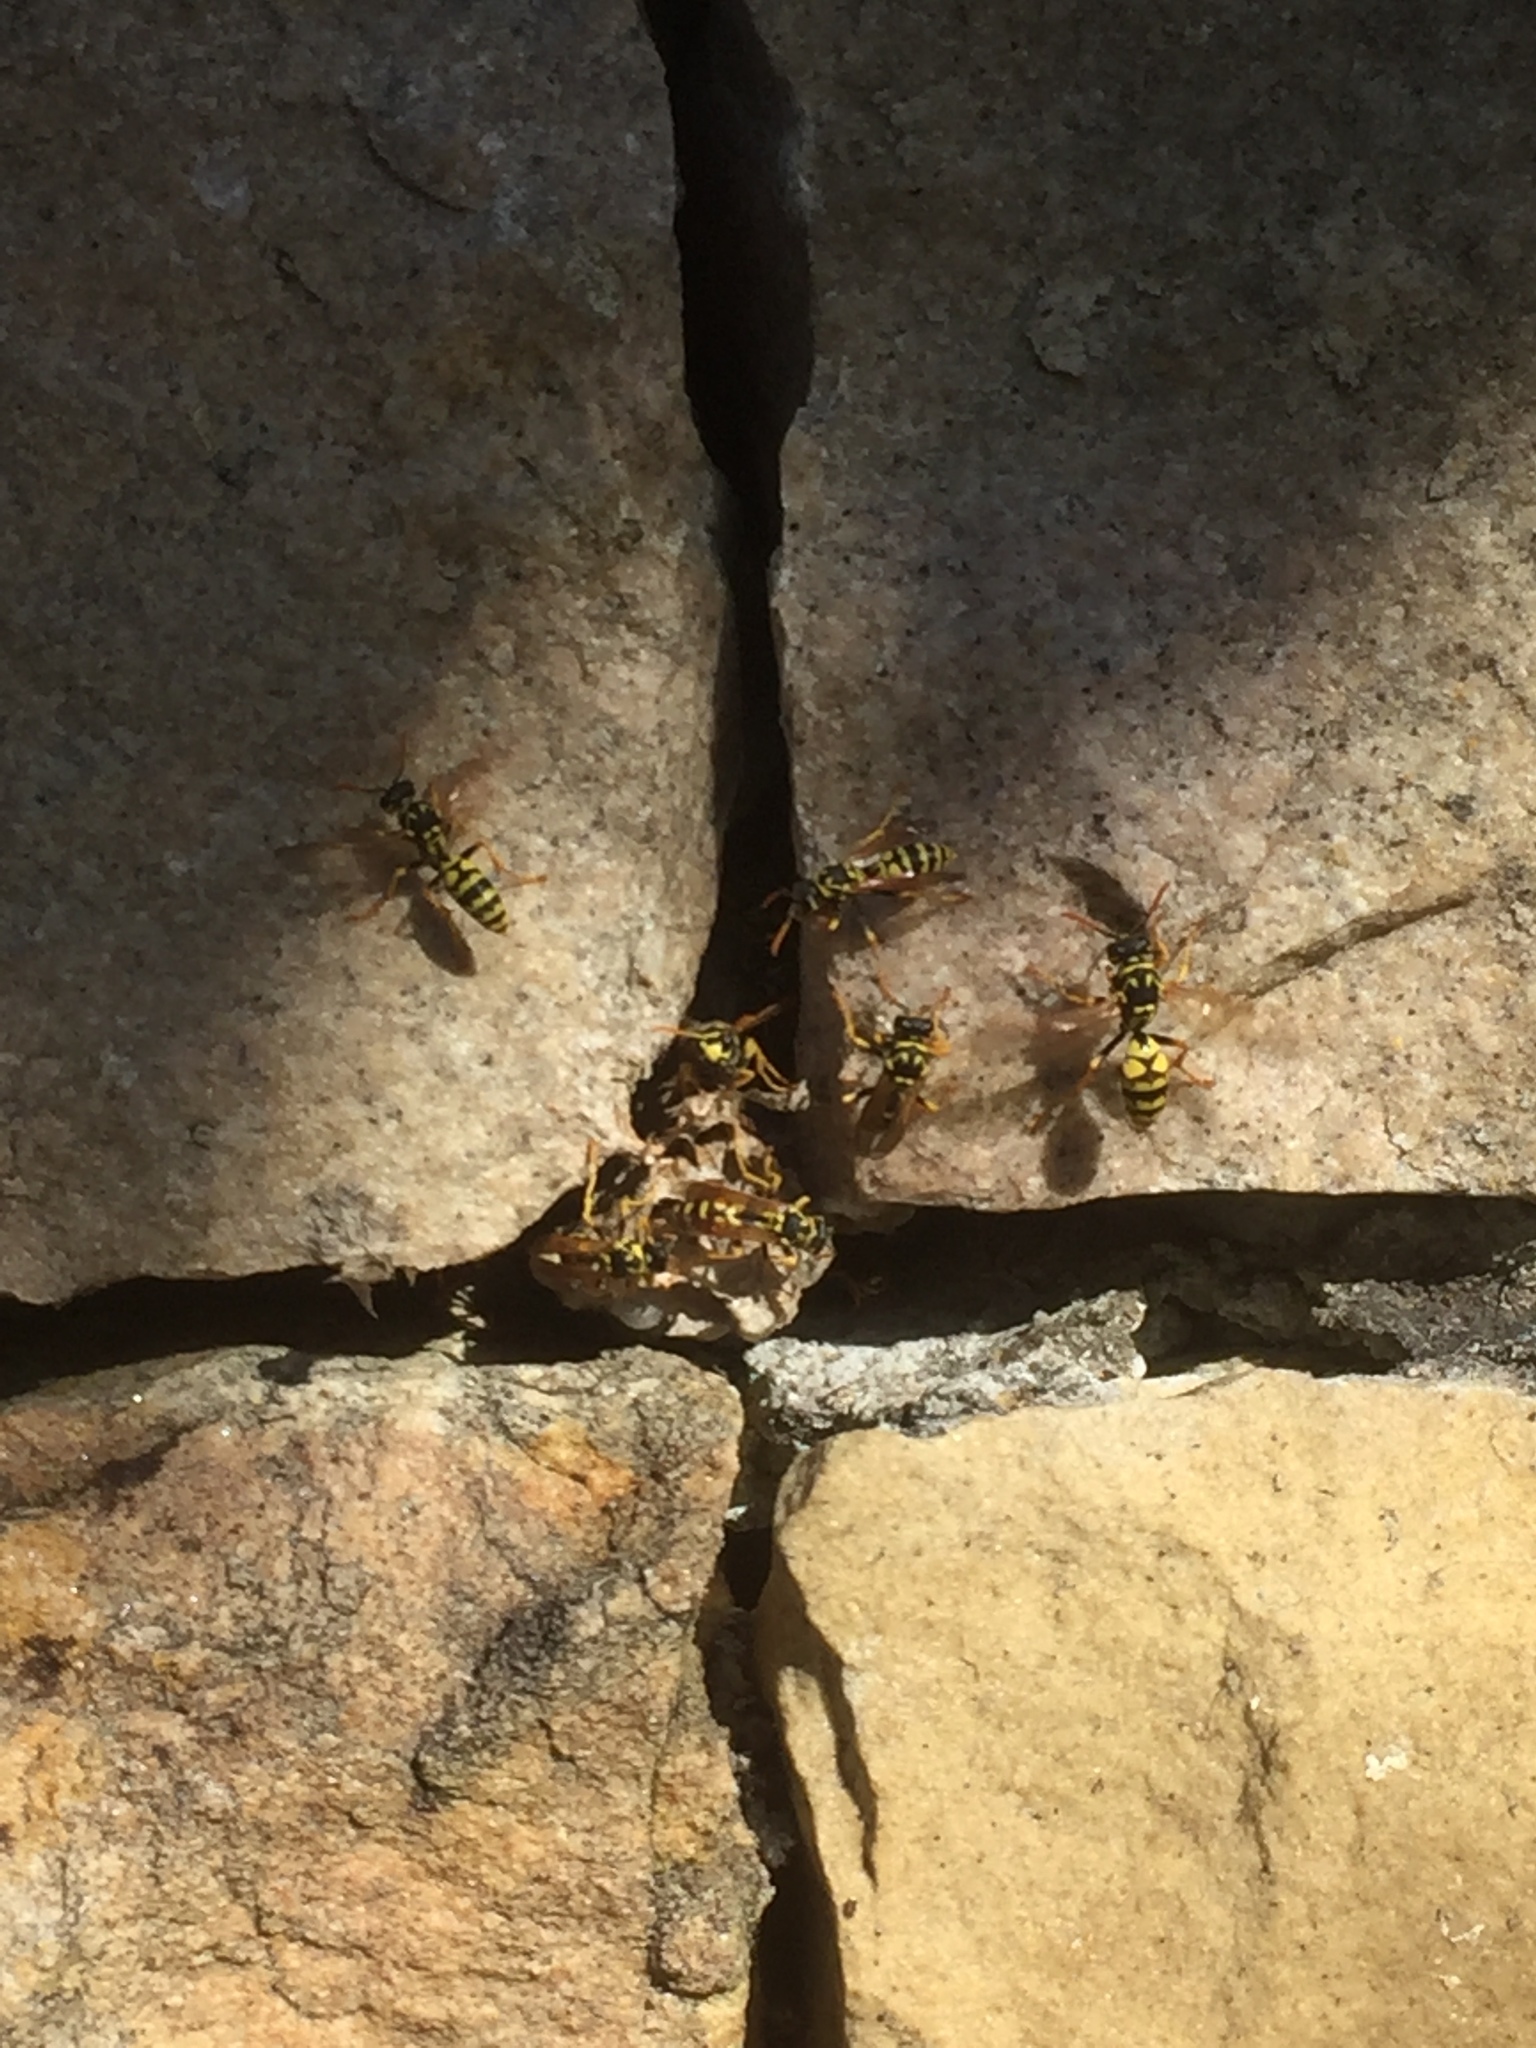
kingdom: Animalia
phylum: Arthropoda
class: Insecta
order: Hymenoptera
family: Eumenidae
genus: Polistes
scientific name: Polistes dominula
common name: Paper wasp
